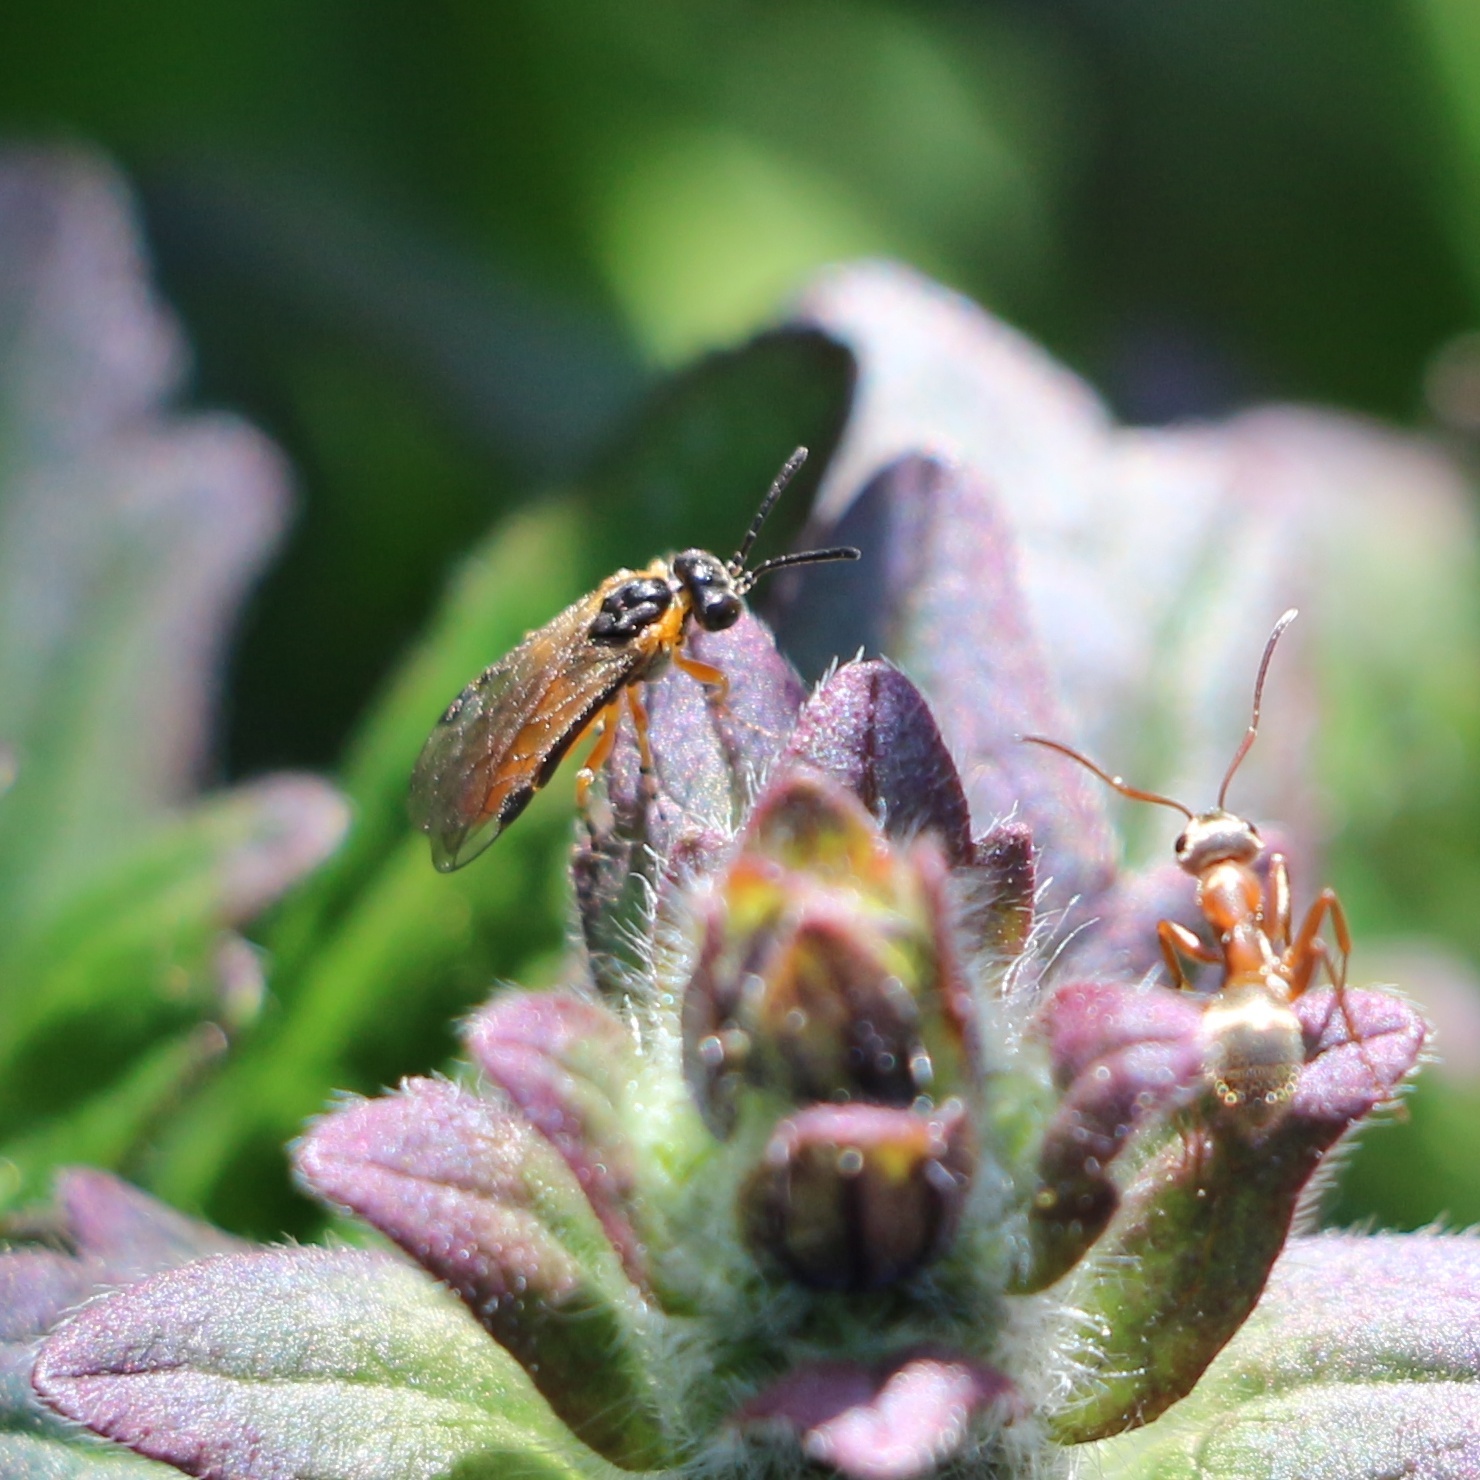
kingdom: Animalia
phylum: Arthropoda
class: Insecta
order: Hymenoptera
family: Tenthredinidae
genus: Athalia
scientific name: Athalia cordata
